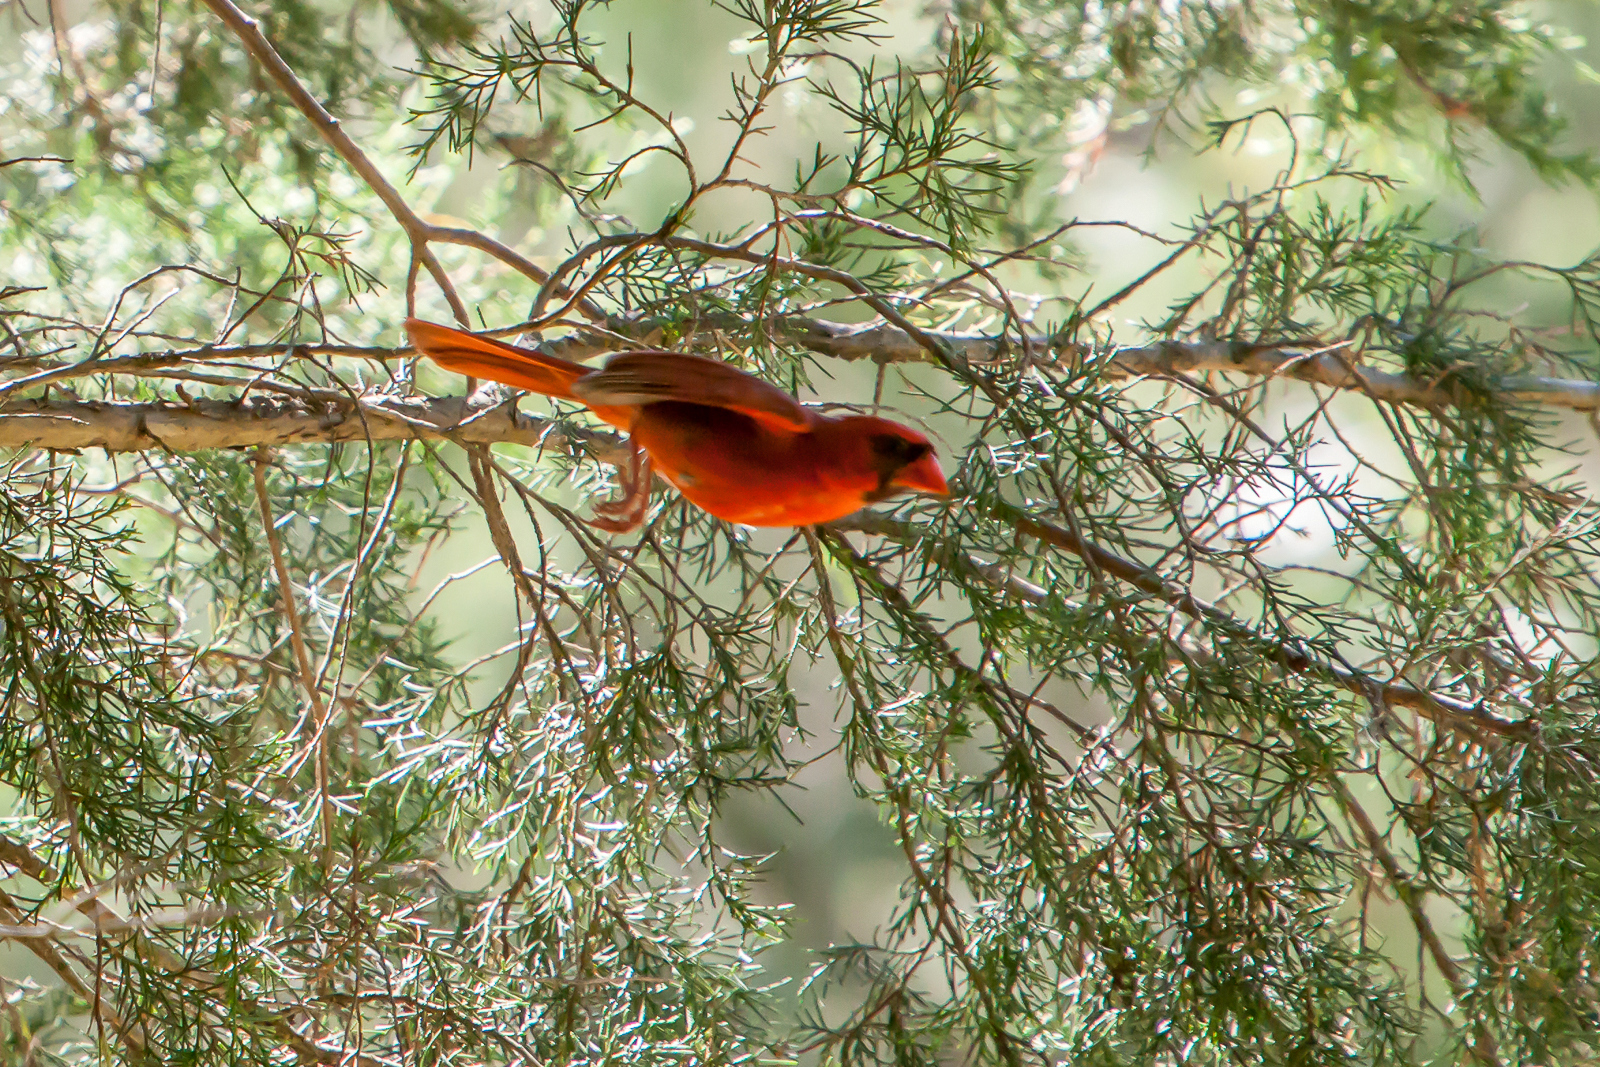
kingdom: Animalia
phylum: Chordata
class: Aves
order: Passeriformes
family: Cardinalidae
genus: Cardinalis
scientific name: Cardinalis cardinalis
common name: Northern cardinal
